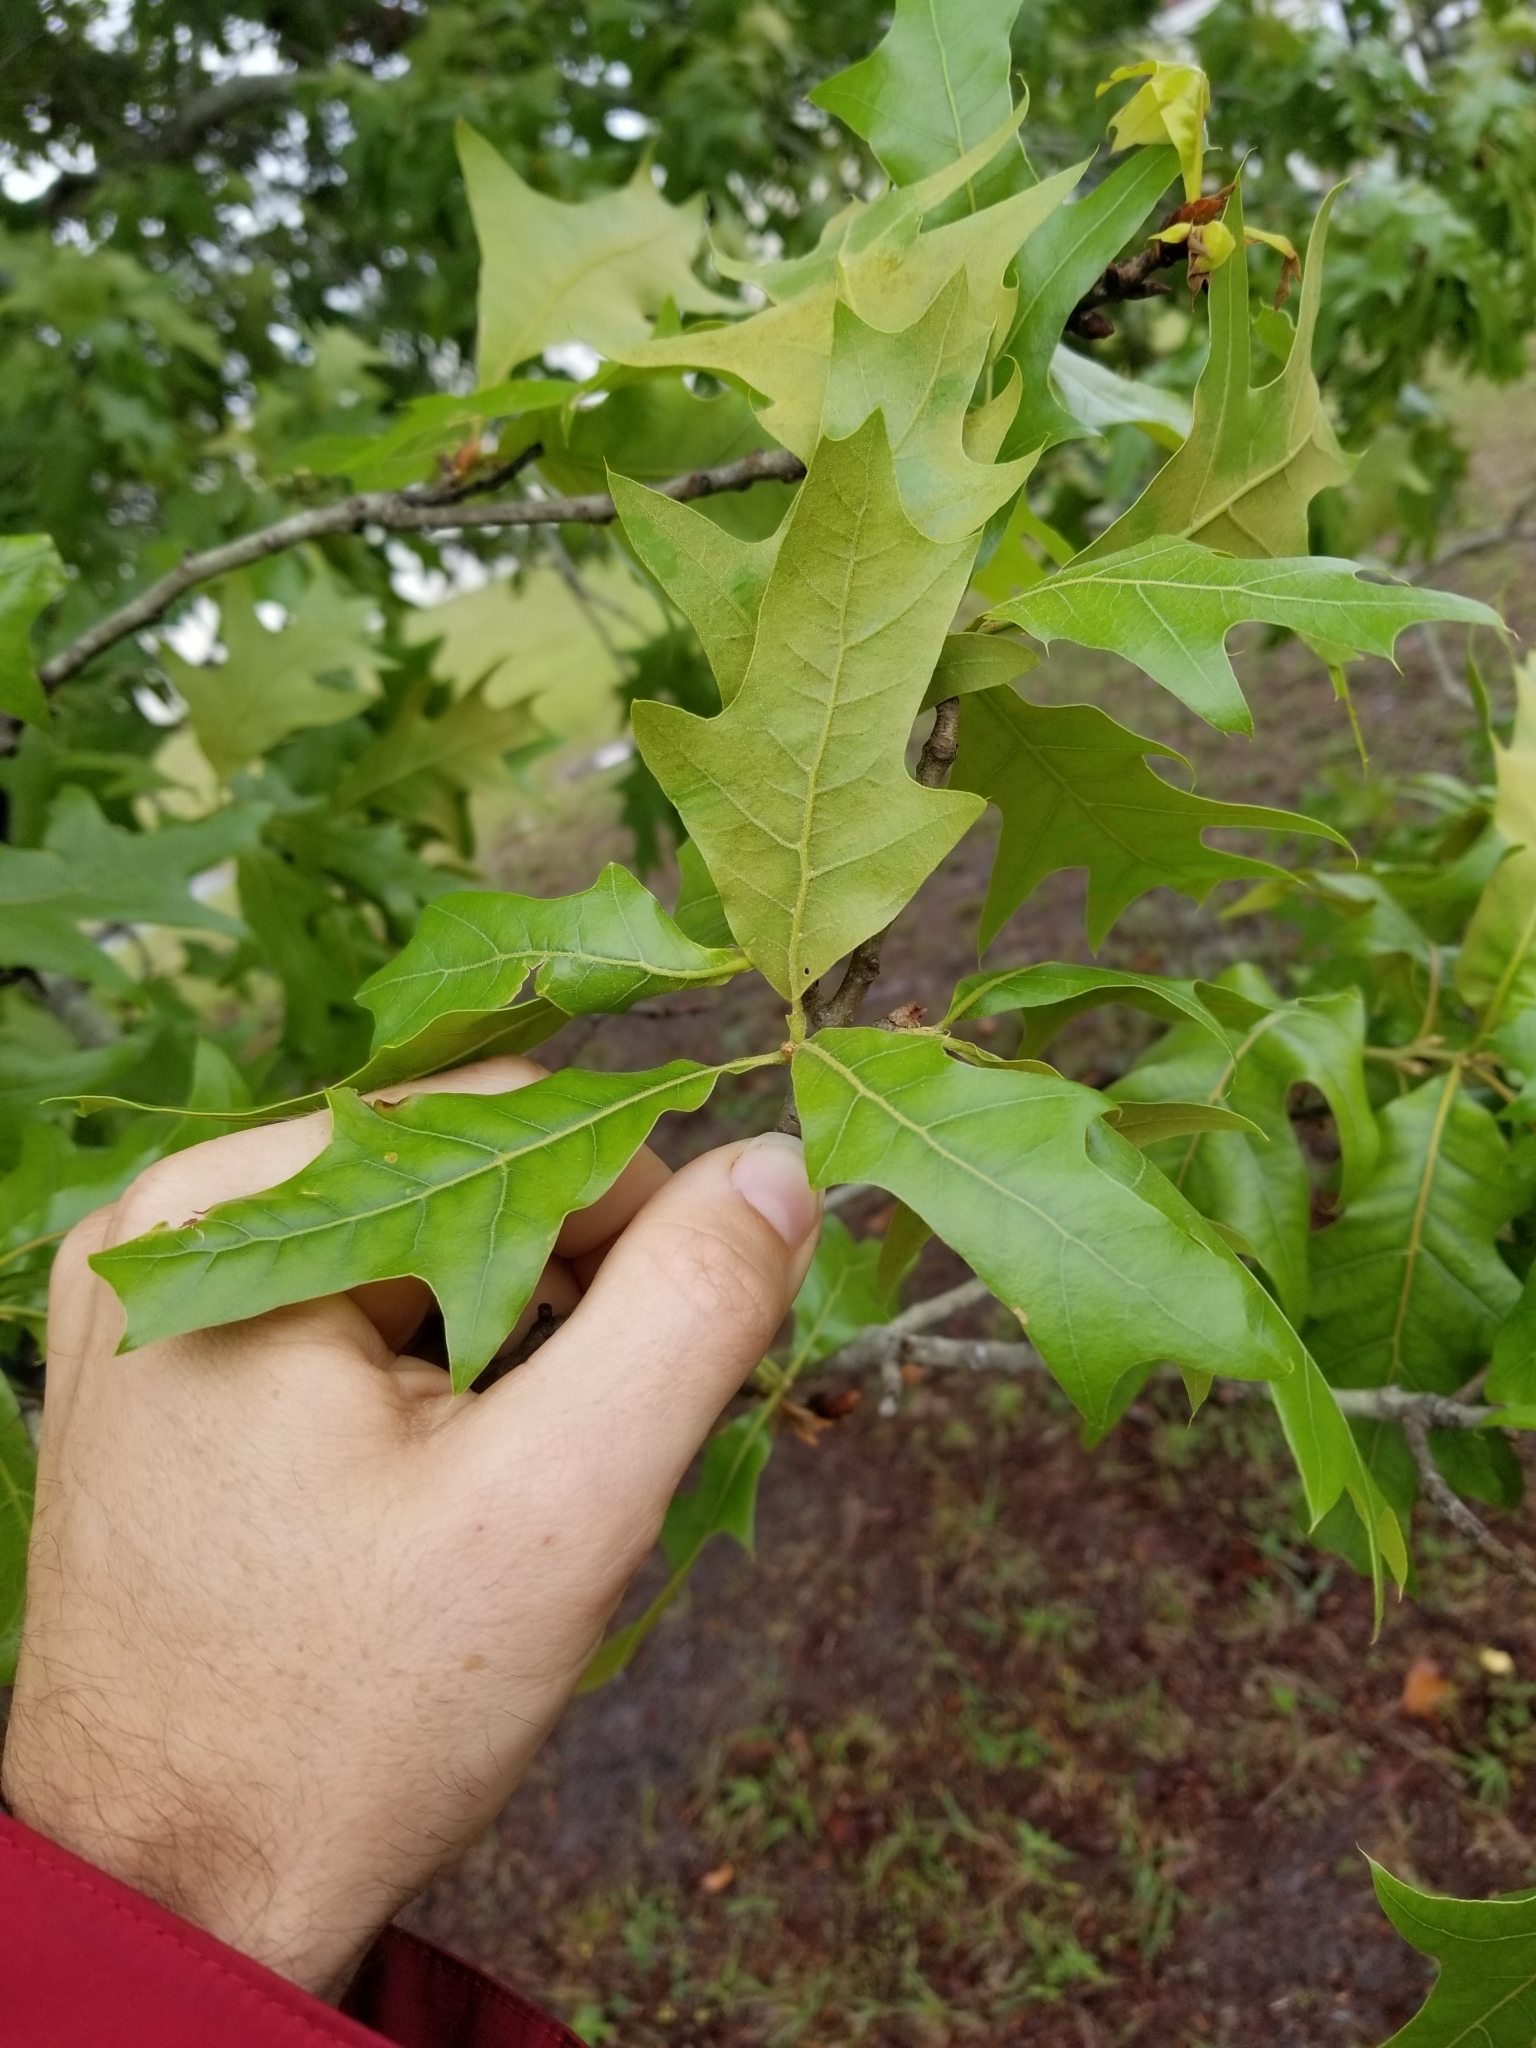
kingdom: Plantae
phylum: Tracheophyta
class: Magnoliopsida
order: Fagales
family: Fagaceae
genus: Quercus
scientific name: Quercus laevis
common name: Turkey oak
